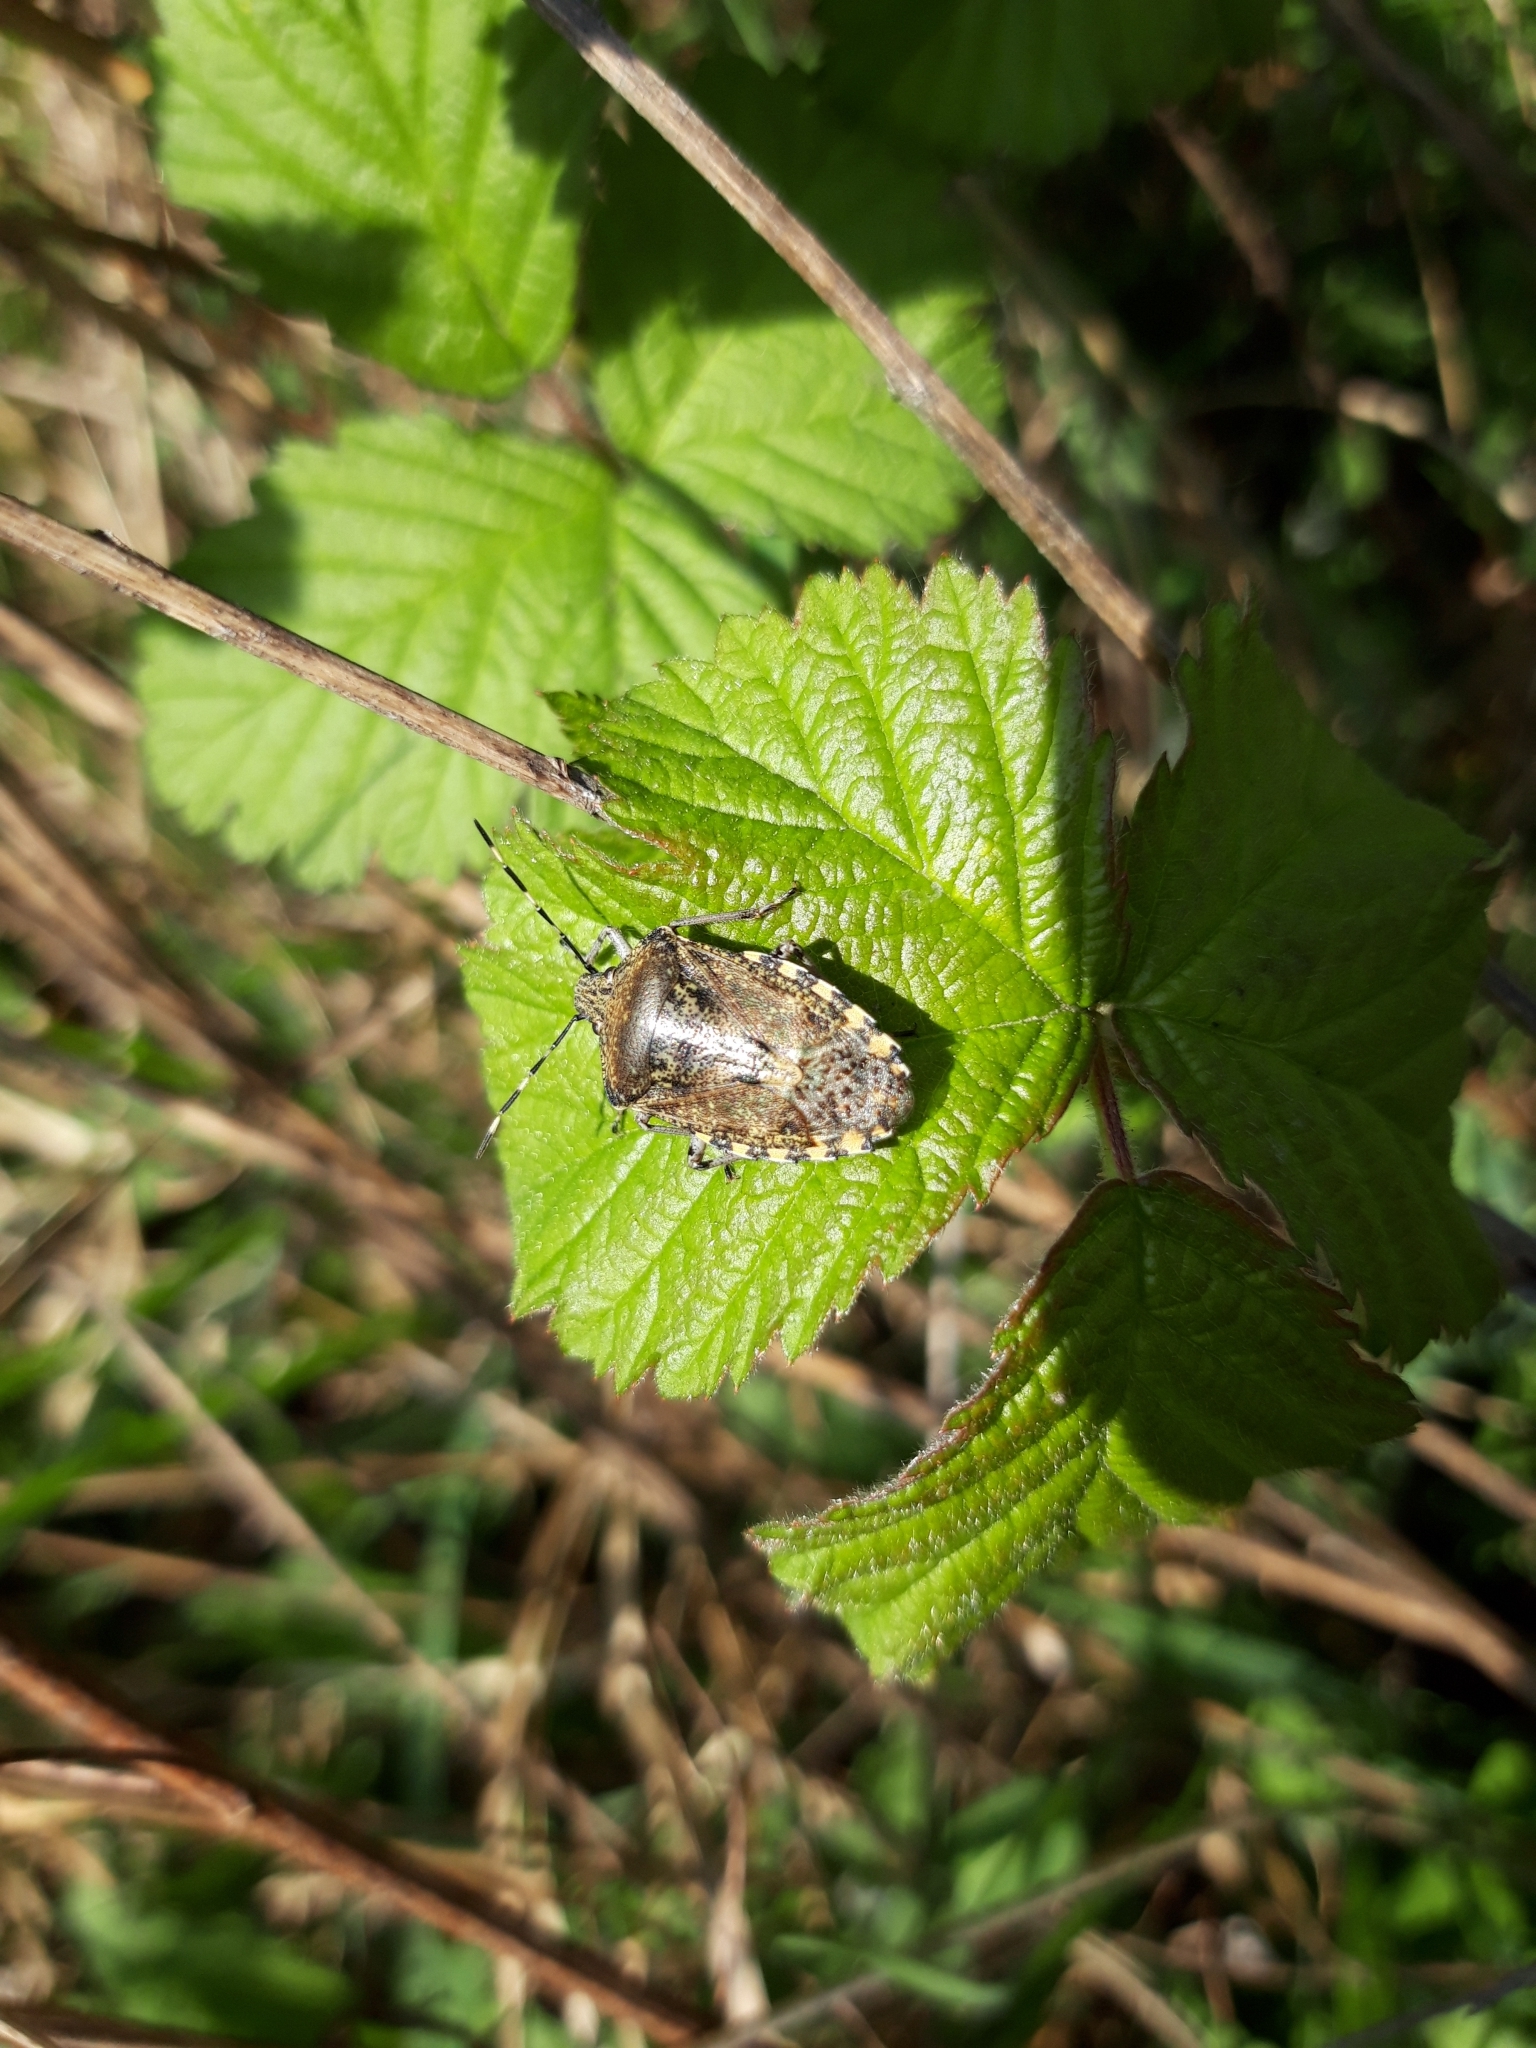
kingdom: Animalia
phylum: Arthropoda
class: Insecta
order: Hemiptera
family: Pentatomidae
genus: Rhaphigaster
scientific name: Rhaphigaster nebulosa
